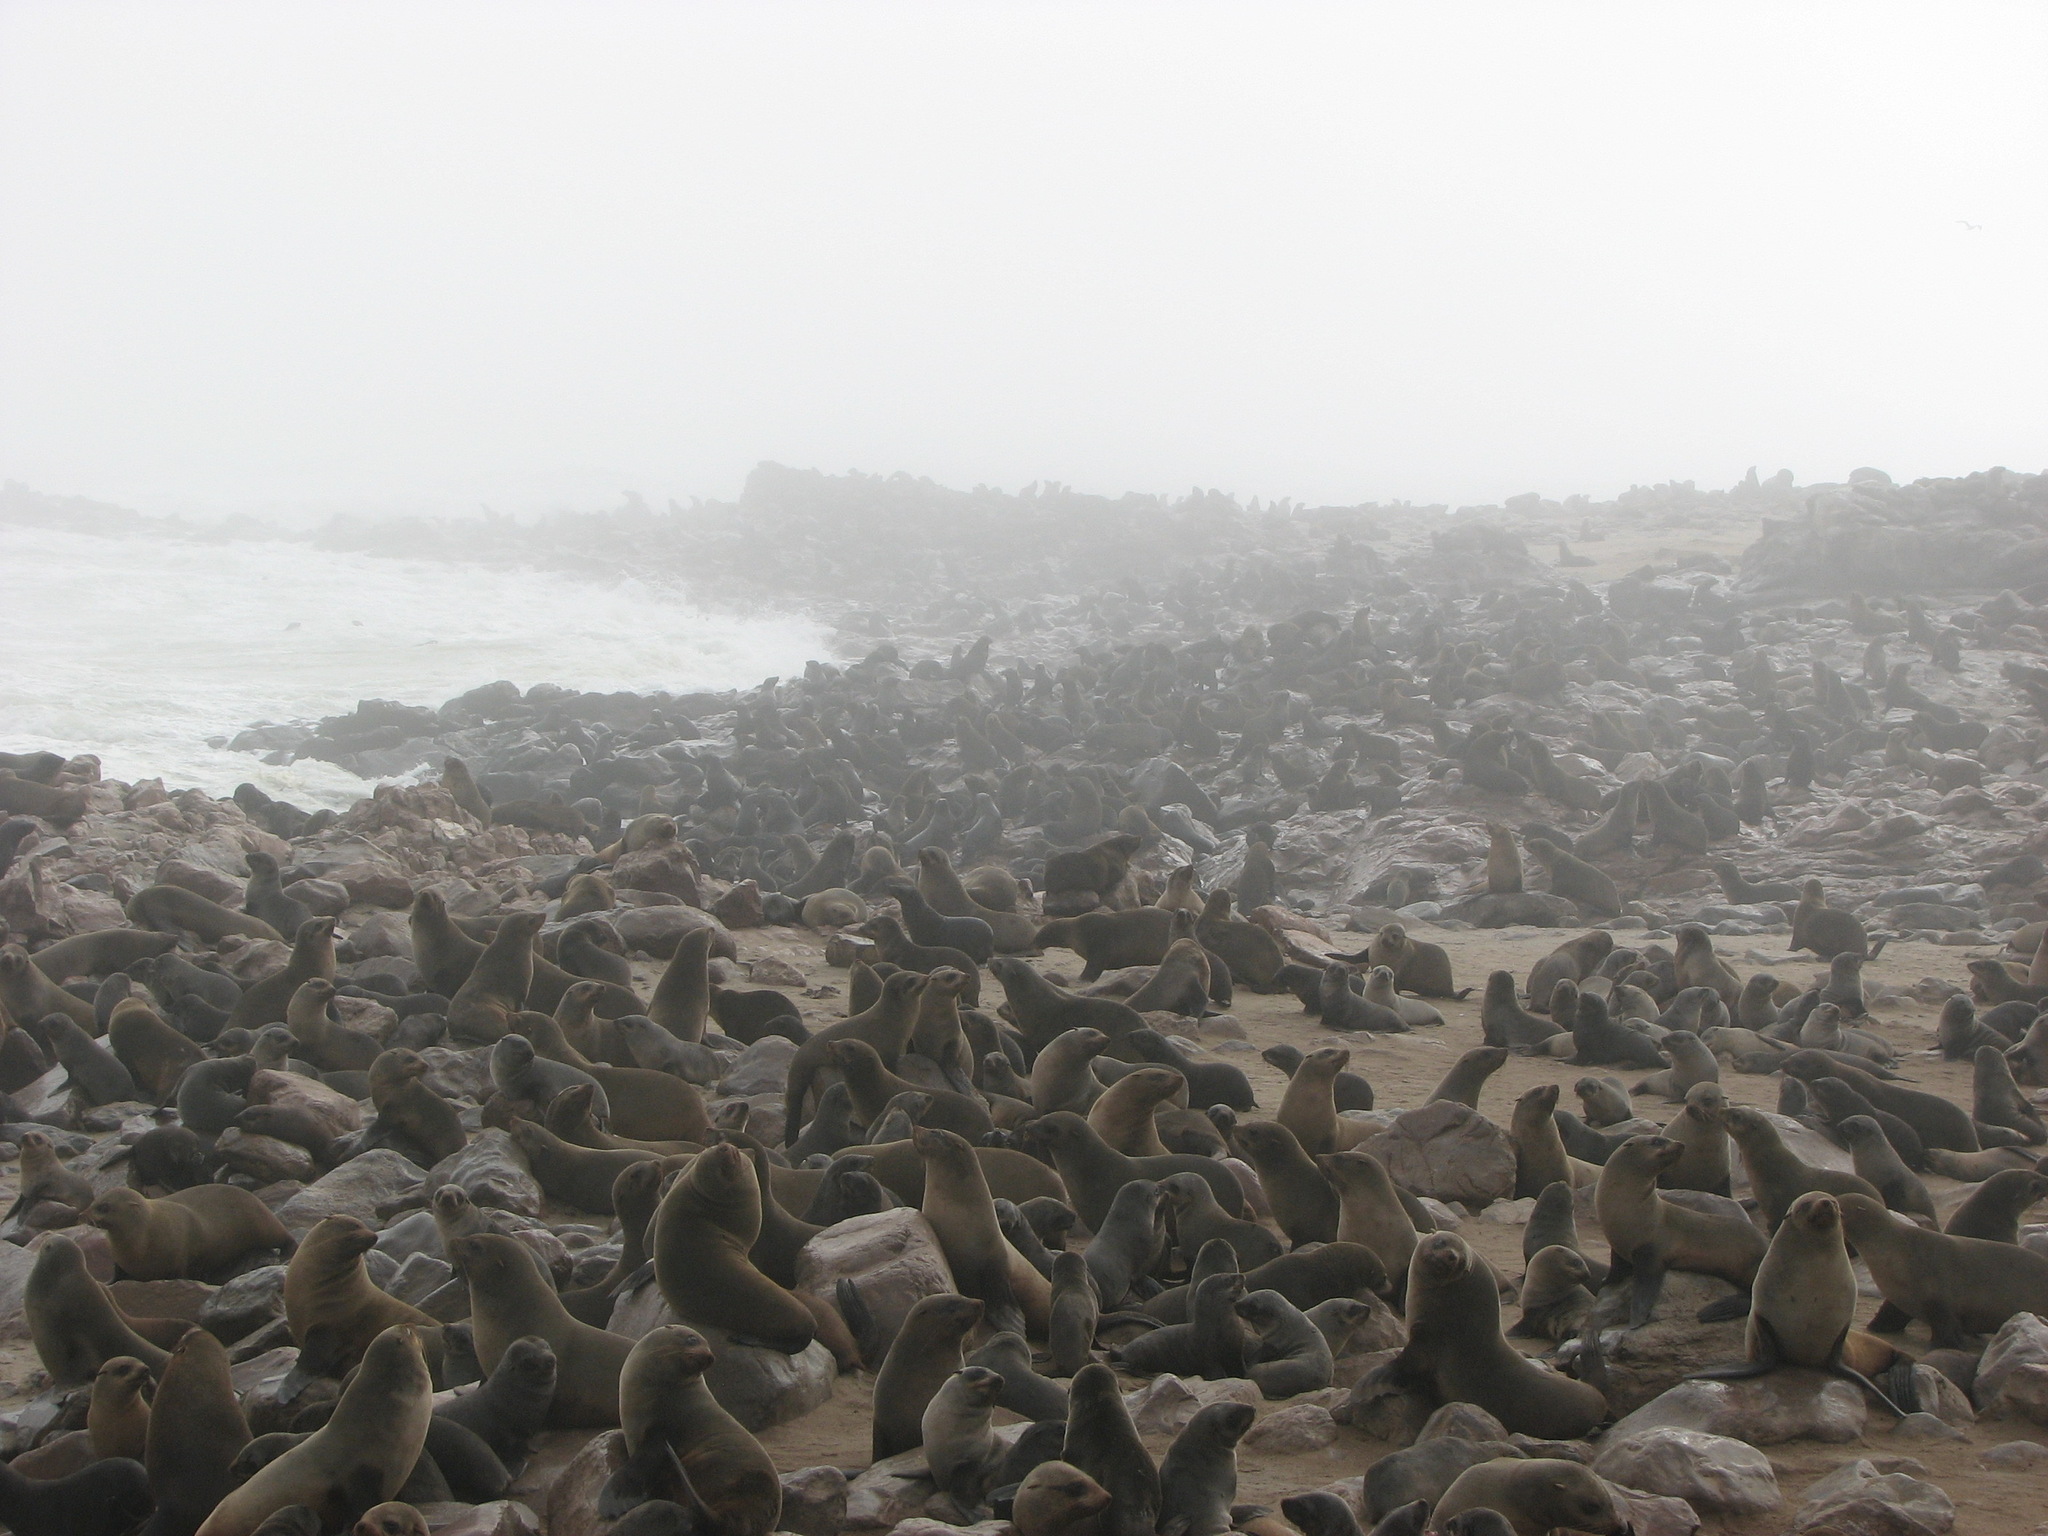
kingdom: Animalia
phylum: Chordata
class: Mammalia
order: Carnivora
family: Otariidae
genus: Arctocephalus
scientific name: Arctocephalus pusillus
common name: Brown fur seal
